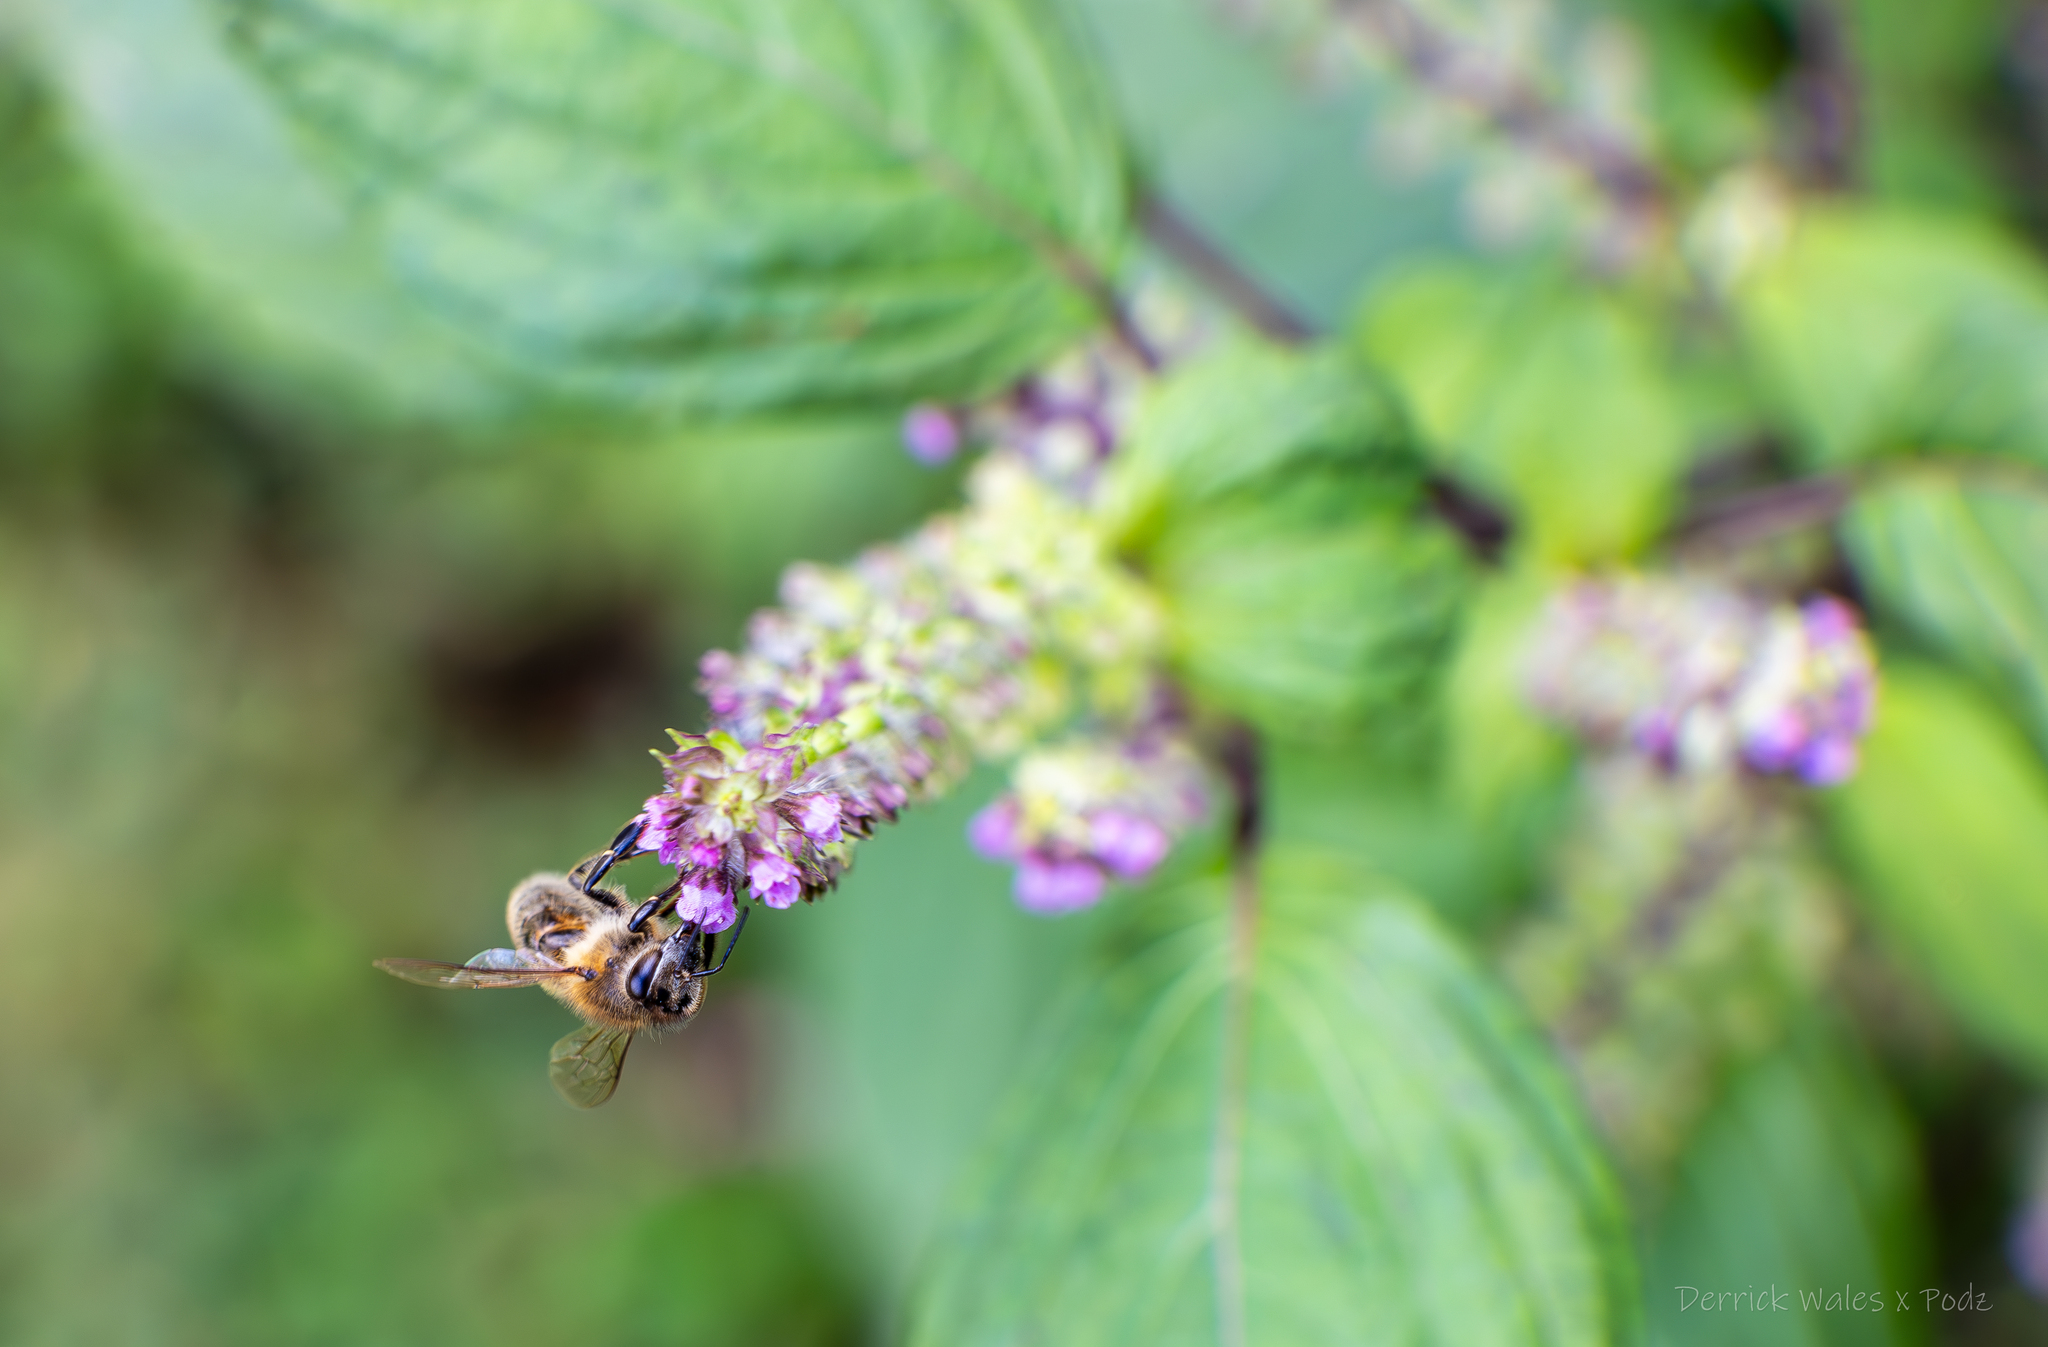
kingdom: Plantae
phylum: Tracheophyta
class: Magnoliopsida
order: Lamiales
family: Lamiaceae
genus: Perilla
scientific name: Perilla frutescens
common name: Perilla
